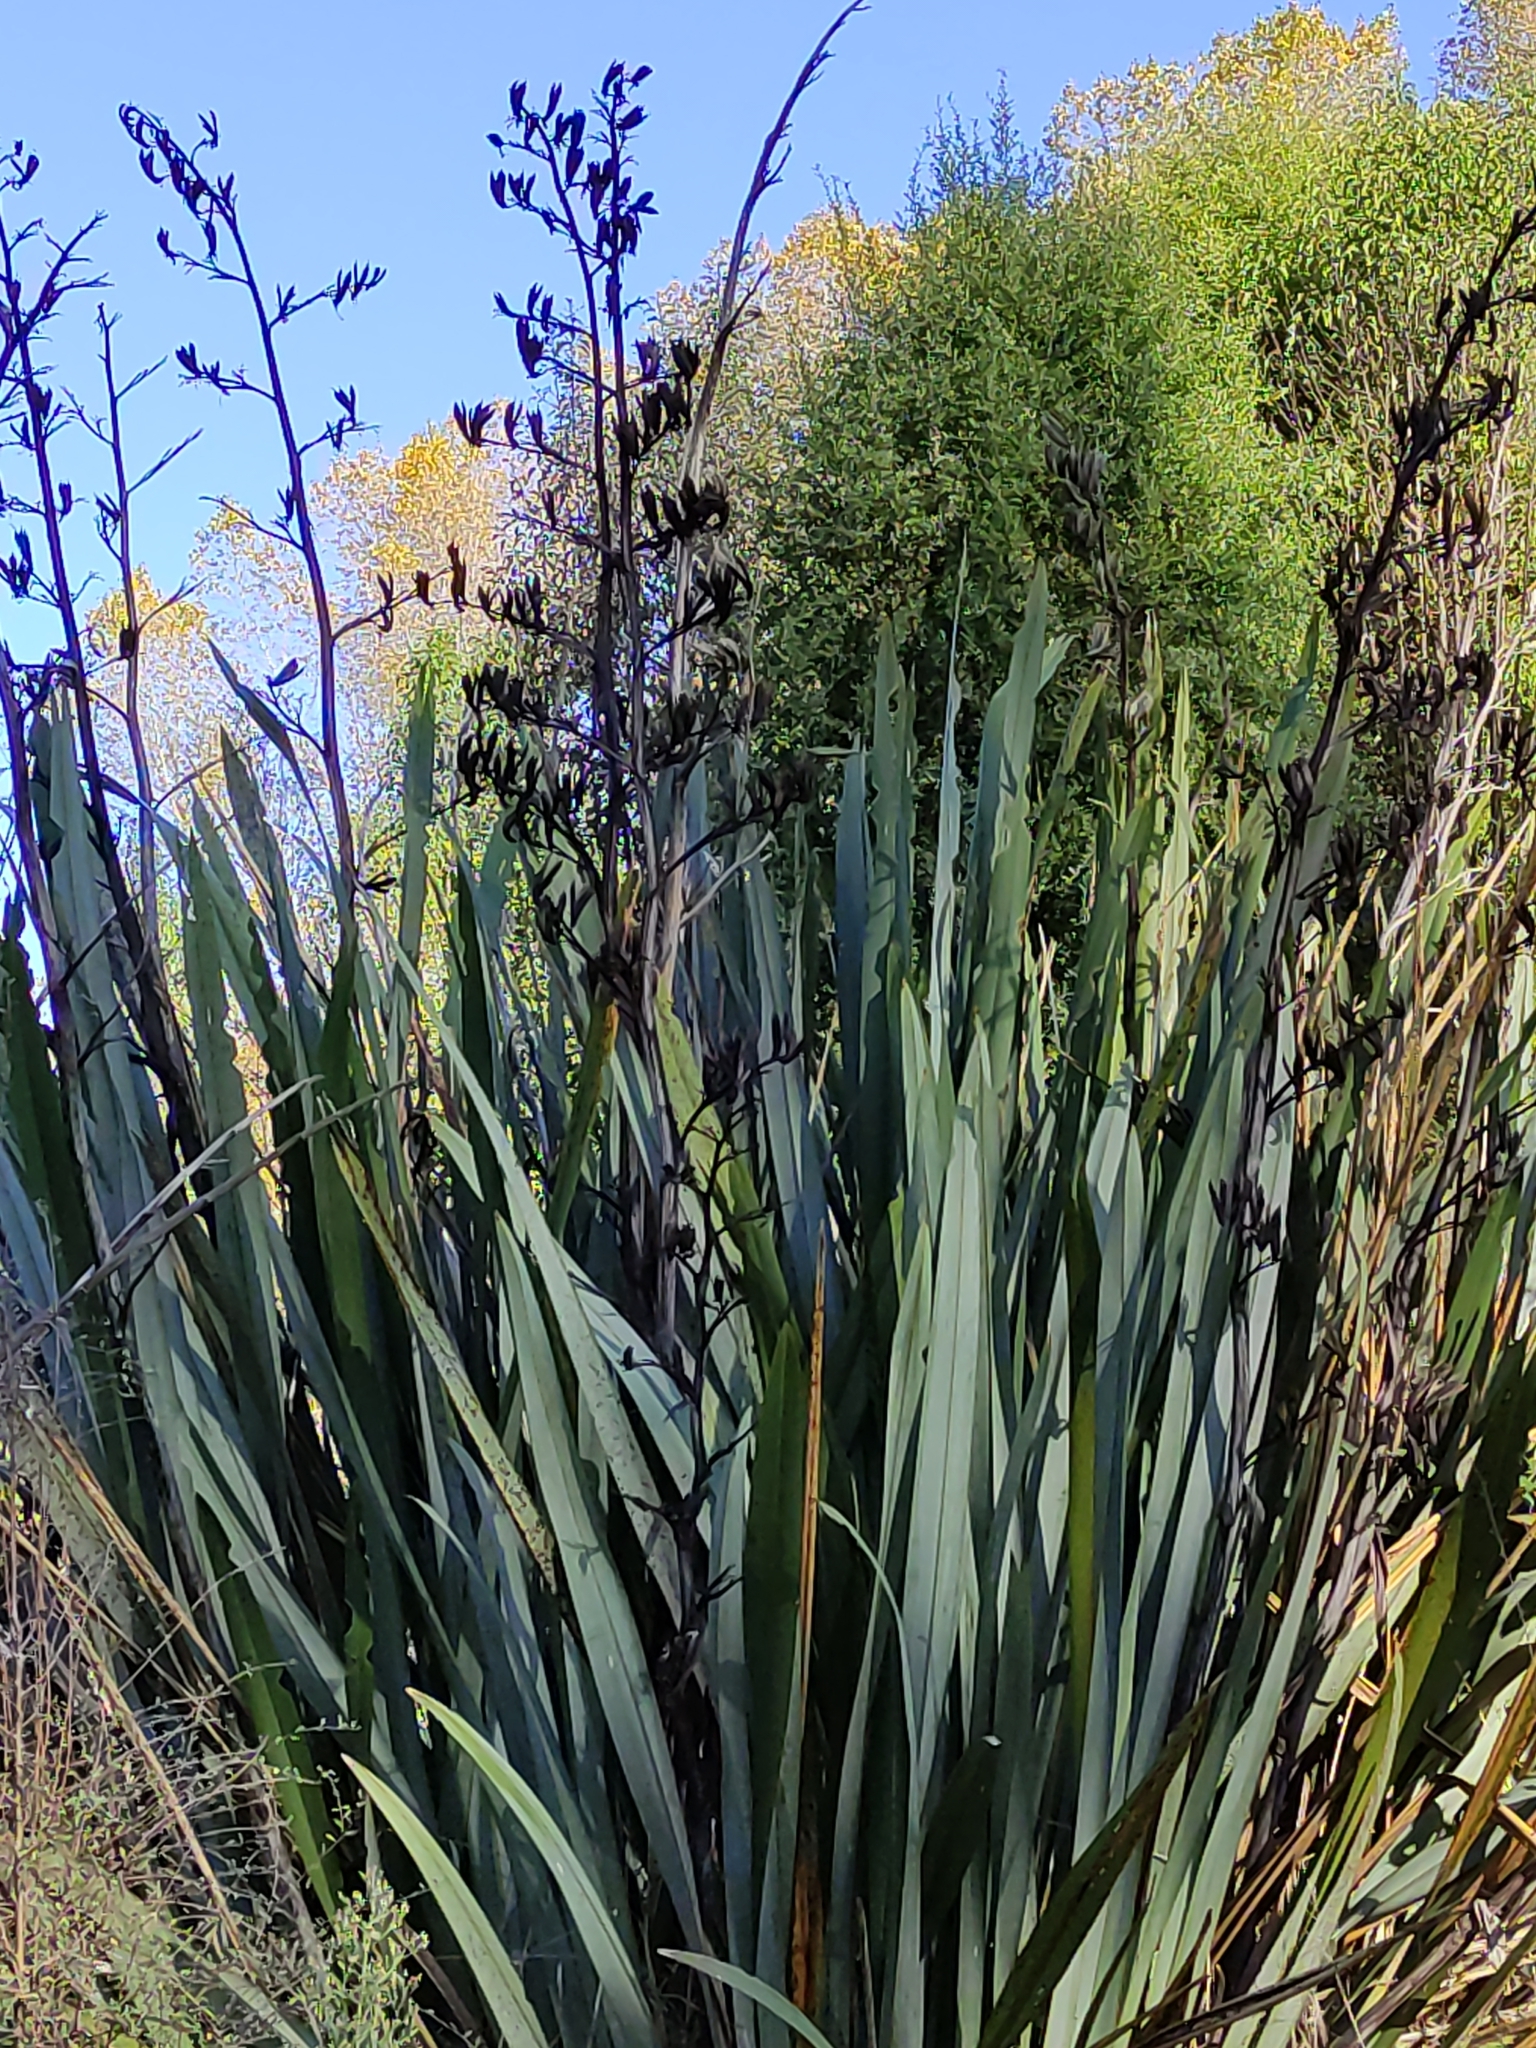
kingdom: Plantae
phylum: Tracheophyta
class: Liliopsida
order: Asparagales
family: Asphodelaceae
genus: Phormium
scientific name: Phormium tenax
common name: New zealand flax
